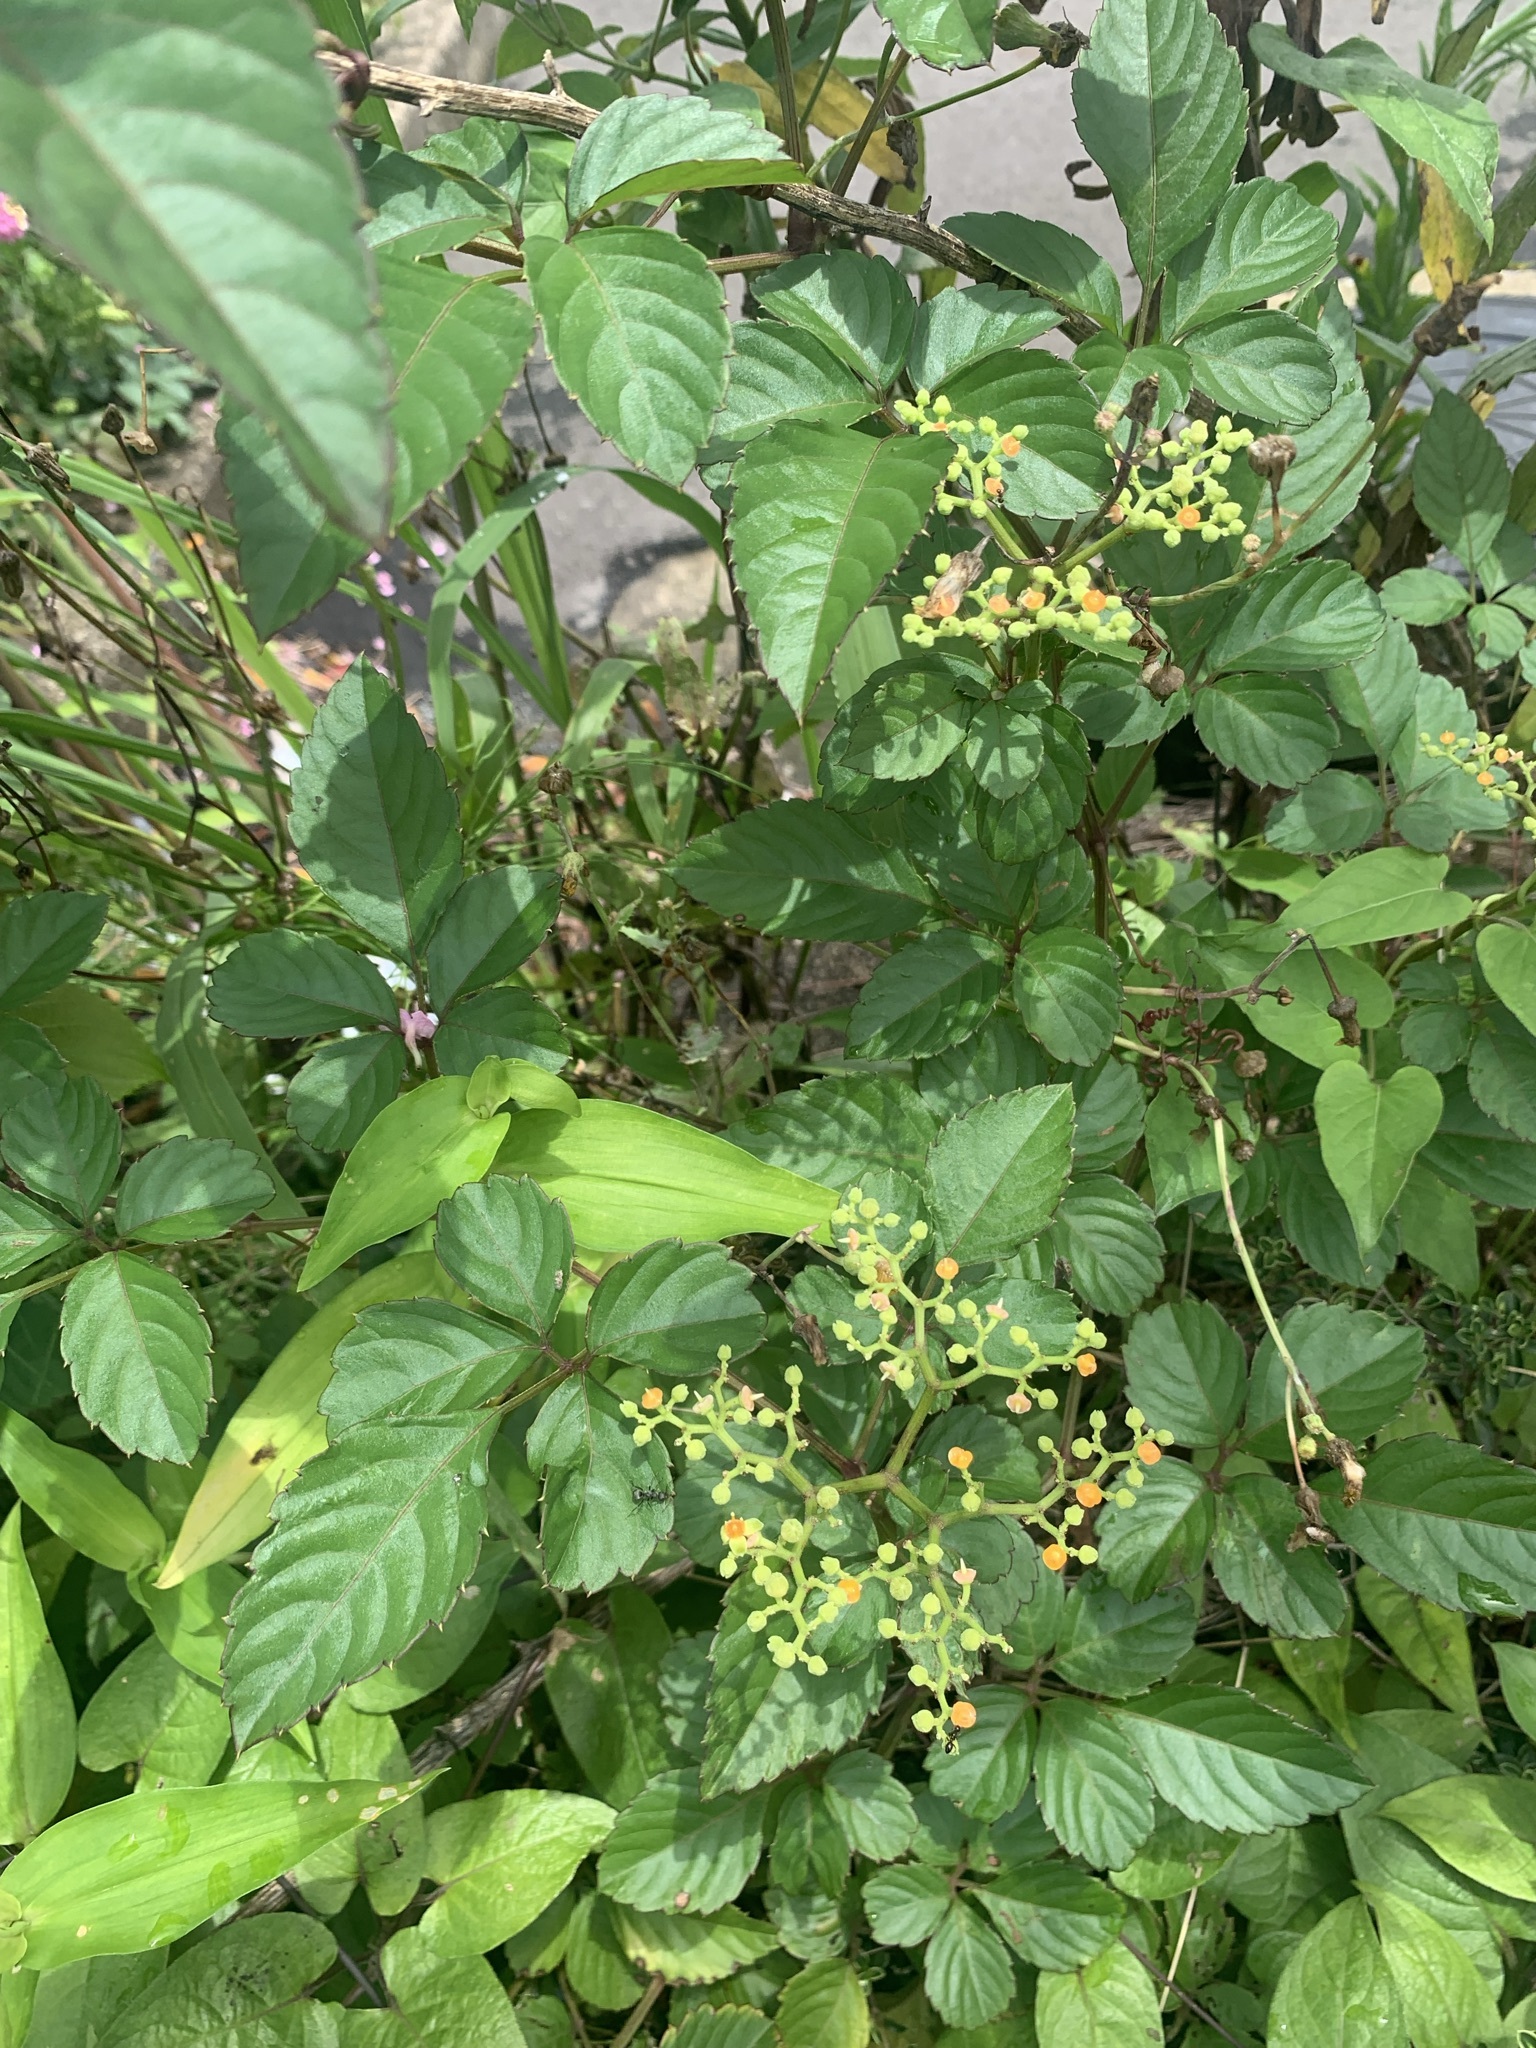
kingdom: Plantae
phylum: Tracheophyta
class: Magnoliopsida
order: Vitales
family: Vitaceae
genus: Causonis
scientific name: Causonis japonica
